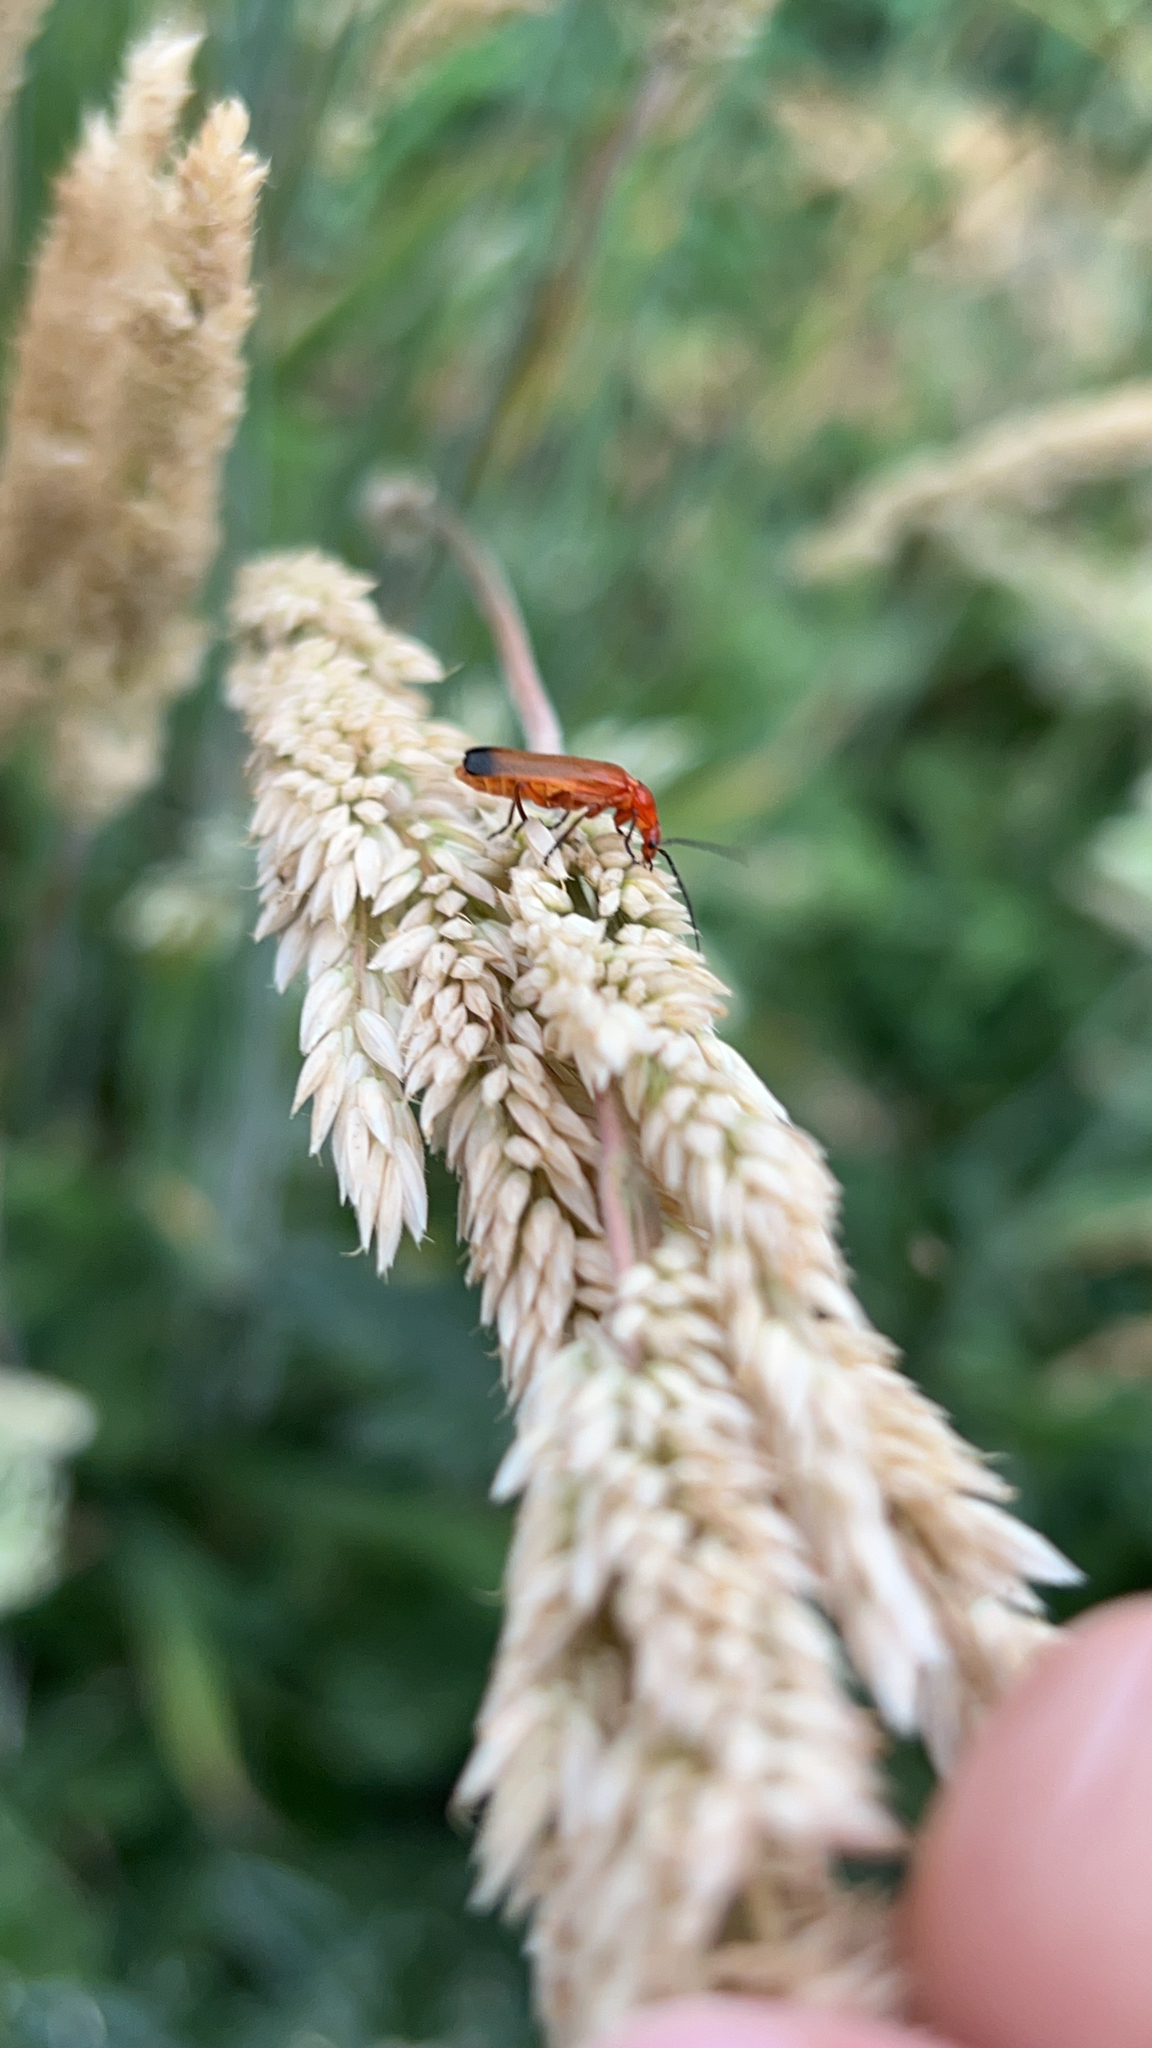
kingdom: Animalia
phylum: Arthropoda
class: Insecta
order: Coleoptera
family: Cantharidae
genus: Rhagonycha
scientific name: Rhagonycha fulva
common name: Common red soldier beetle
